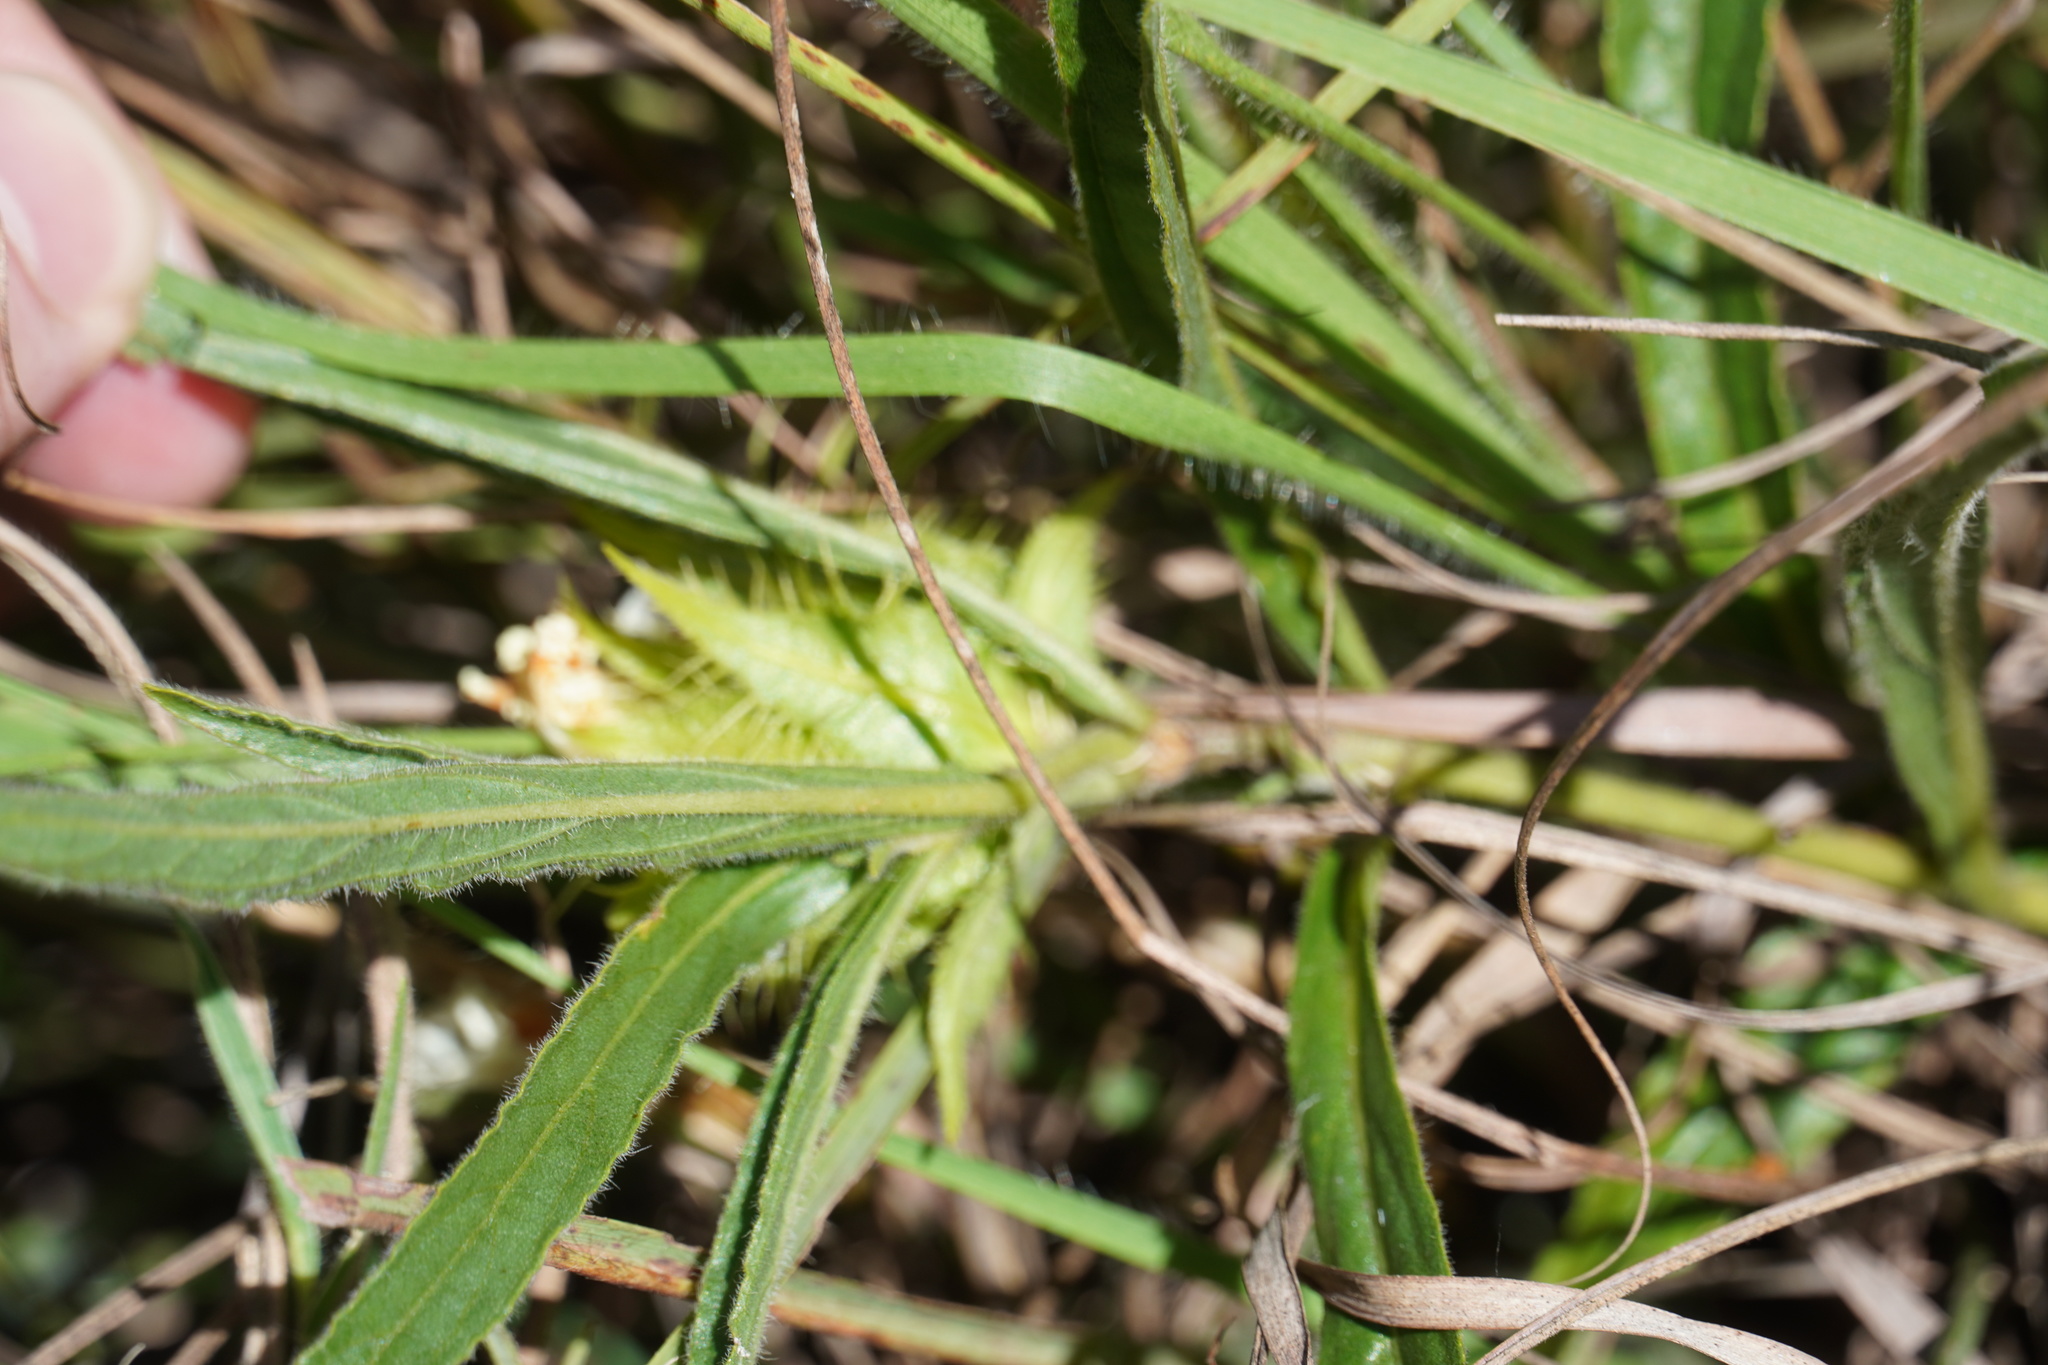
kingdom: Plantae
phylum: Tracheophyta
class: Magnoliopsida
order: Lamiales
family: Acanthaceae
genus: Crabbea
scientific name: Crabbea cirsioides
